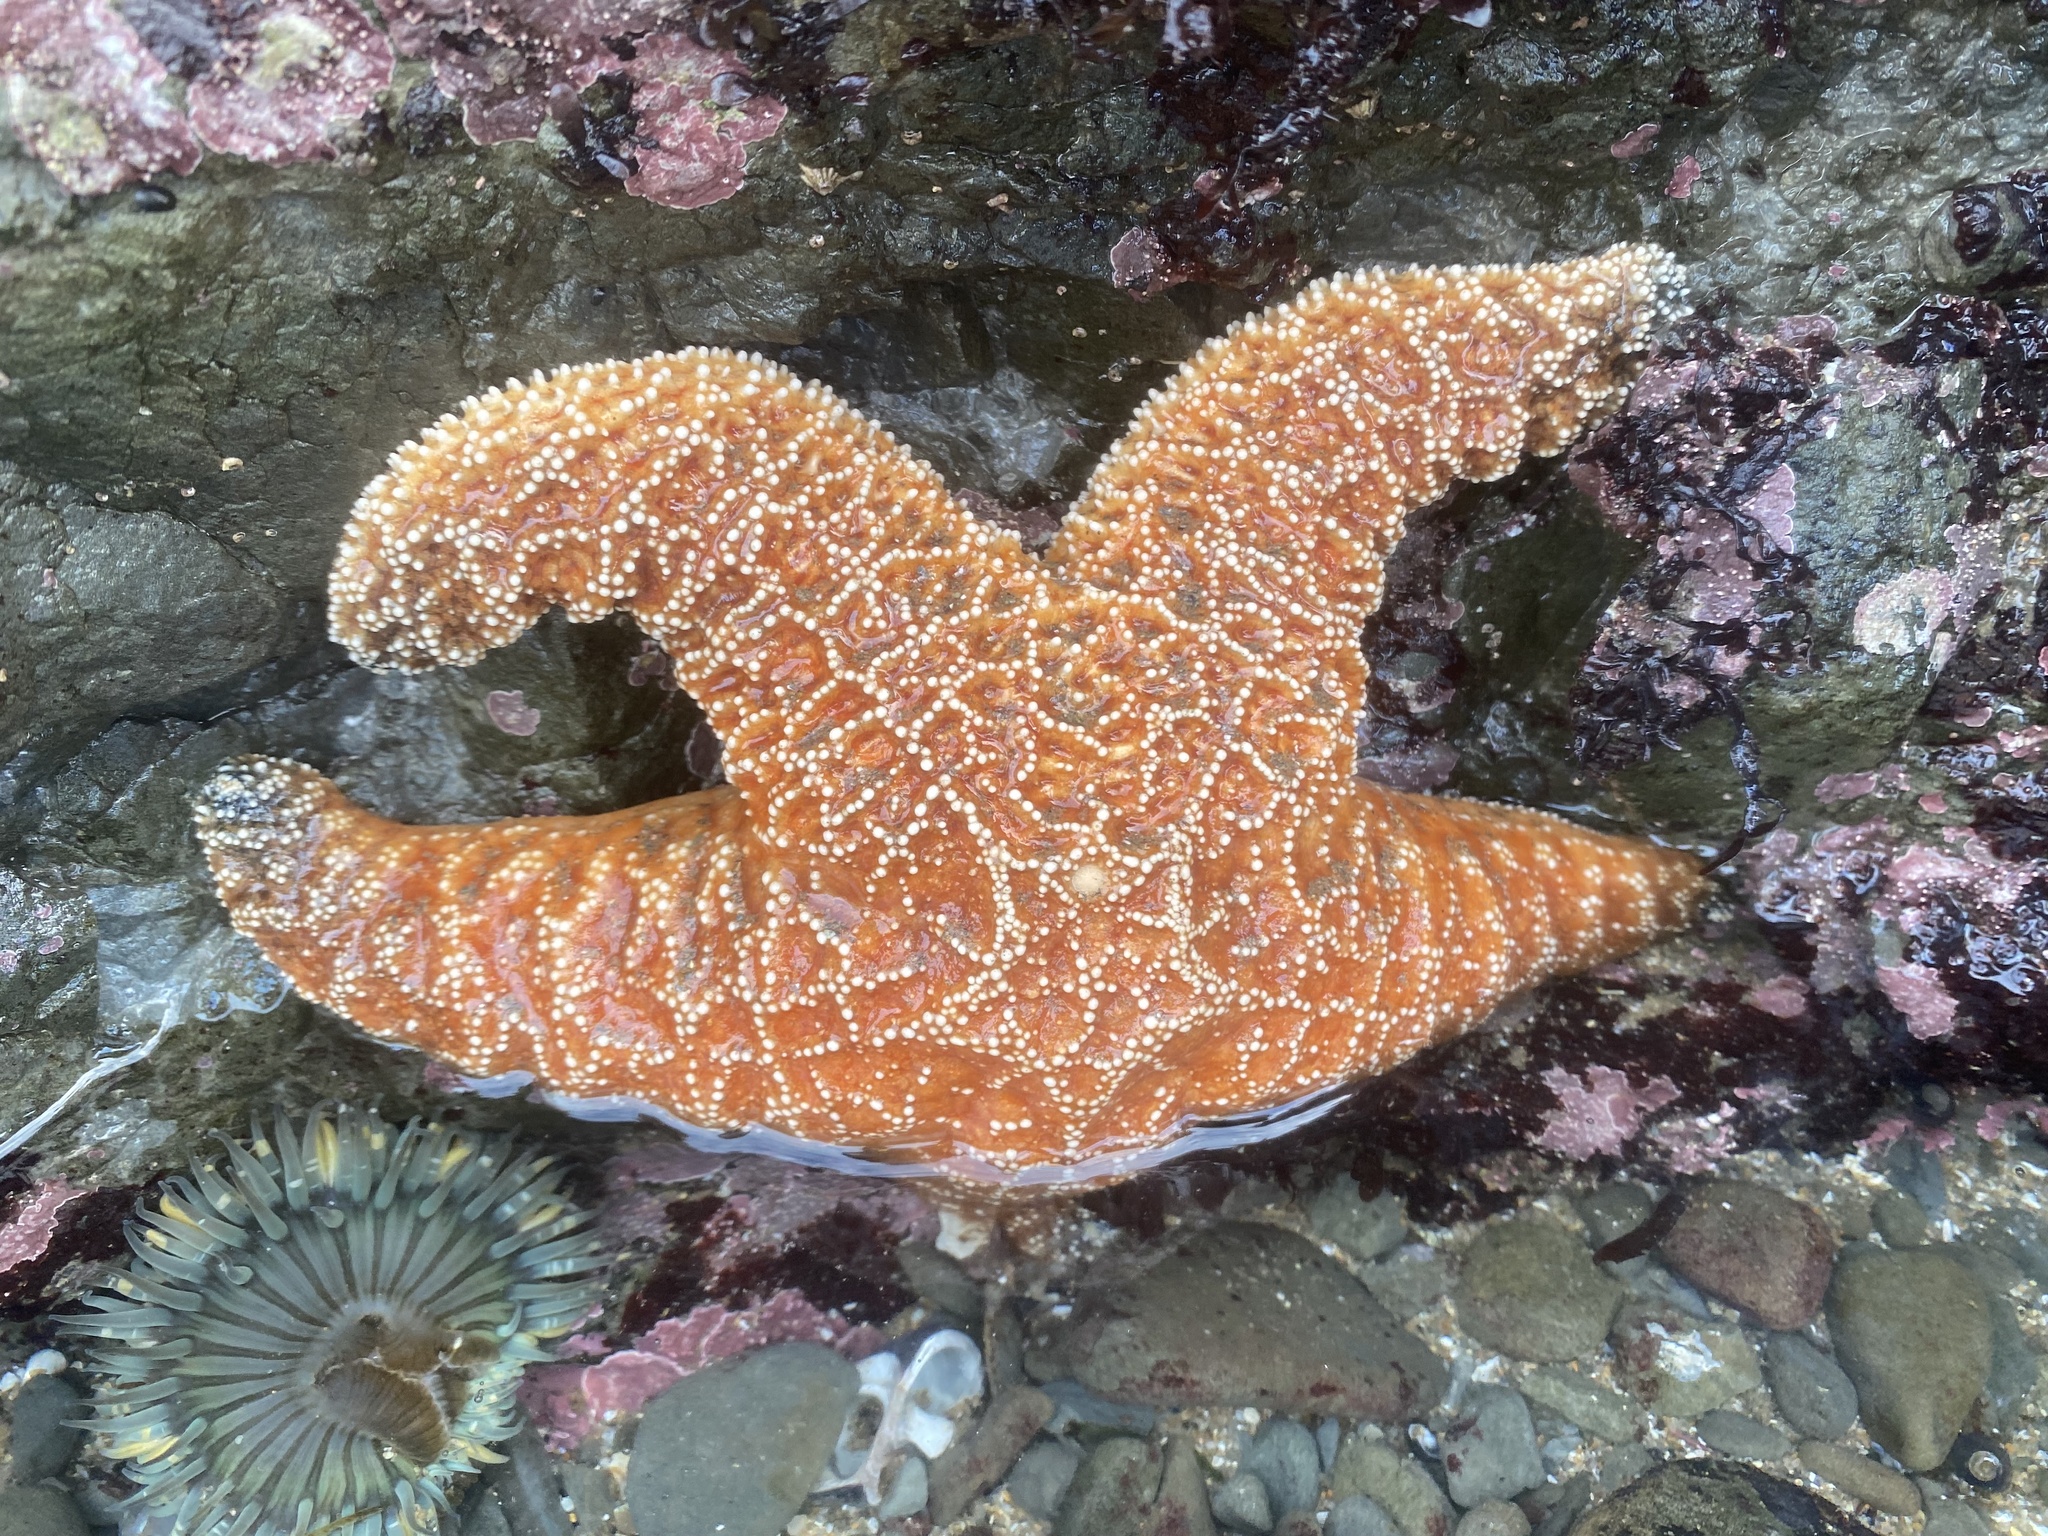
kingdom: Animalia
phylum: Echinodermata
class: Asteroidea
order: Forcipulatida
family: Asteriidae
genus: Pisaster
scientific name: Pisaster ochraceus
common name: Ochre stars
